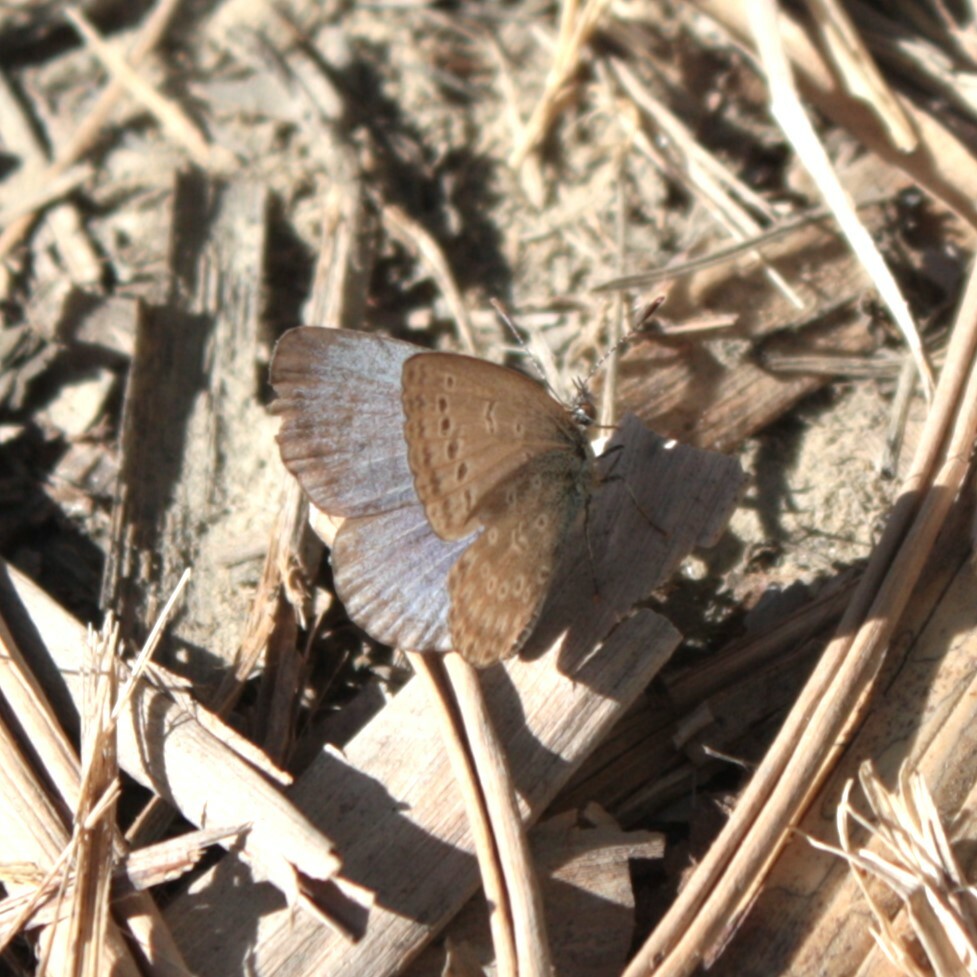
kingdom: Animalia
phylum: Arthropoda
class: Insecta
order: Lepidoptera
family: Lycaenidae
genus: Pseudozizeeria
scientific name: Pseudozizeeria maha
